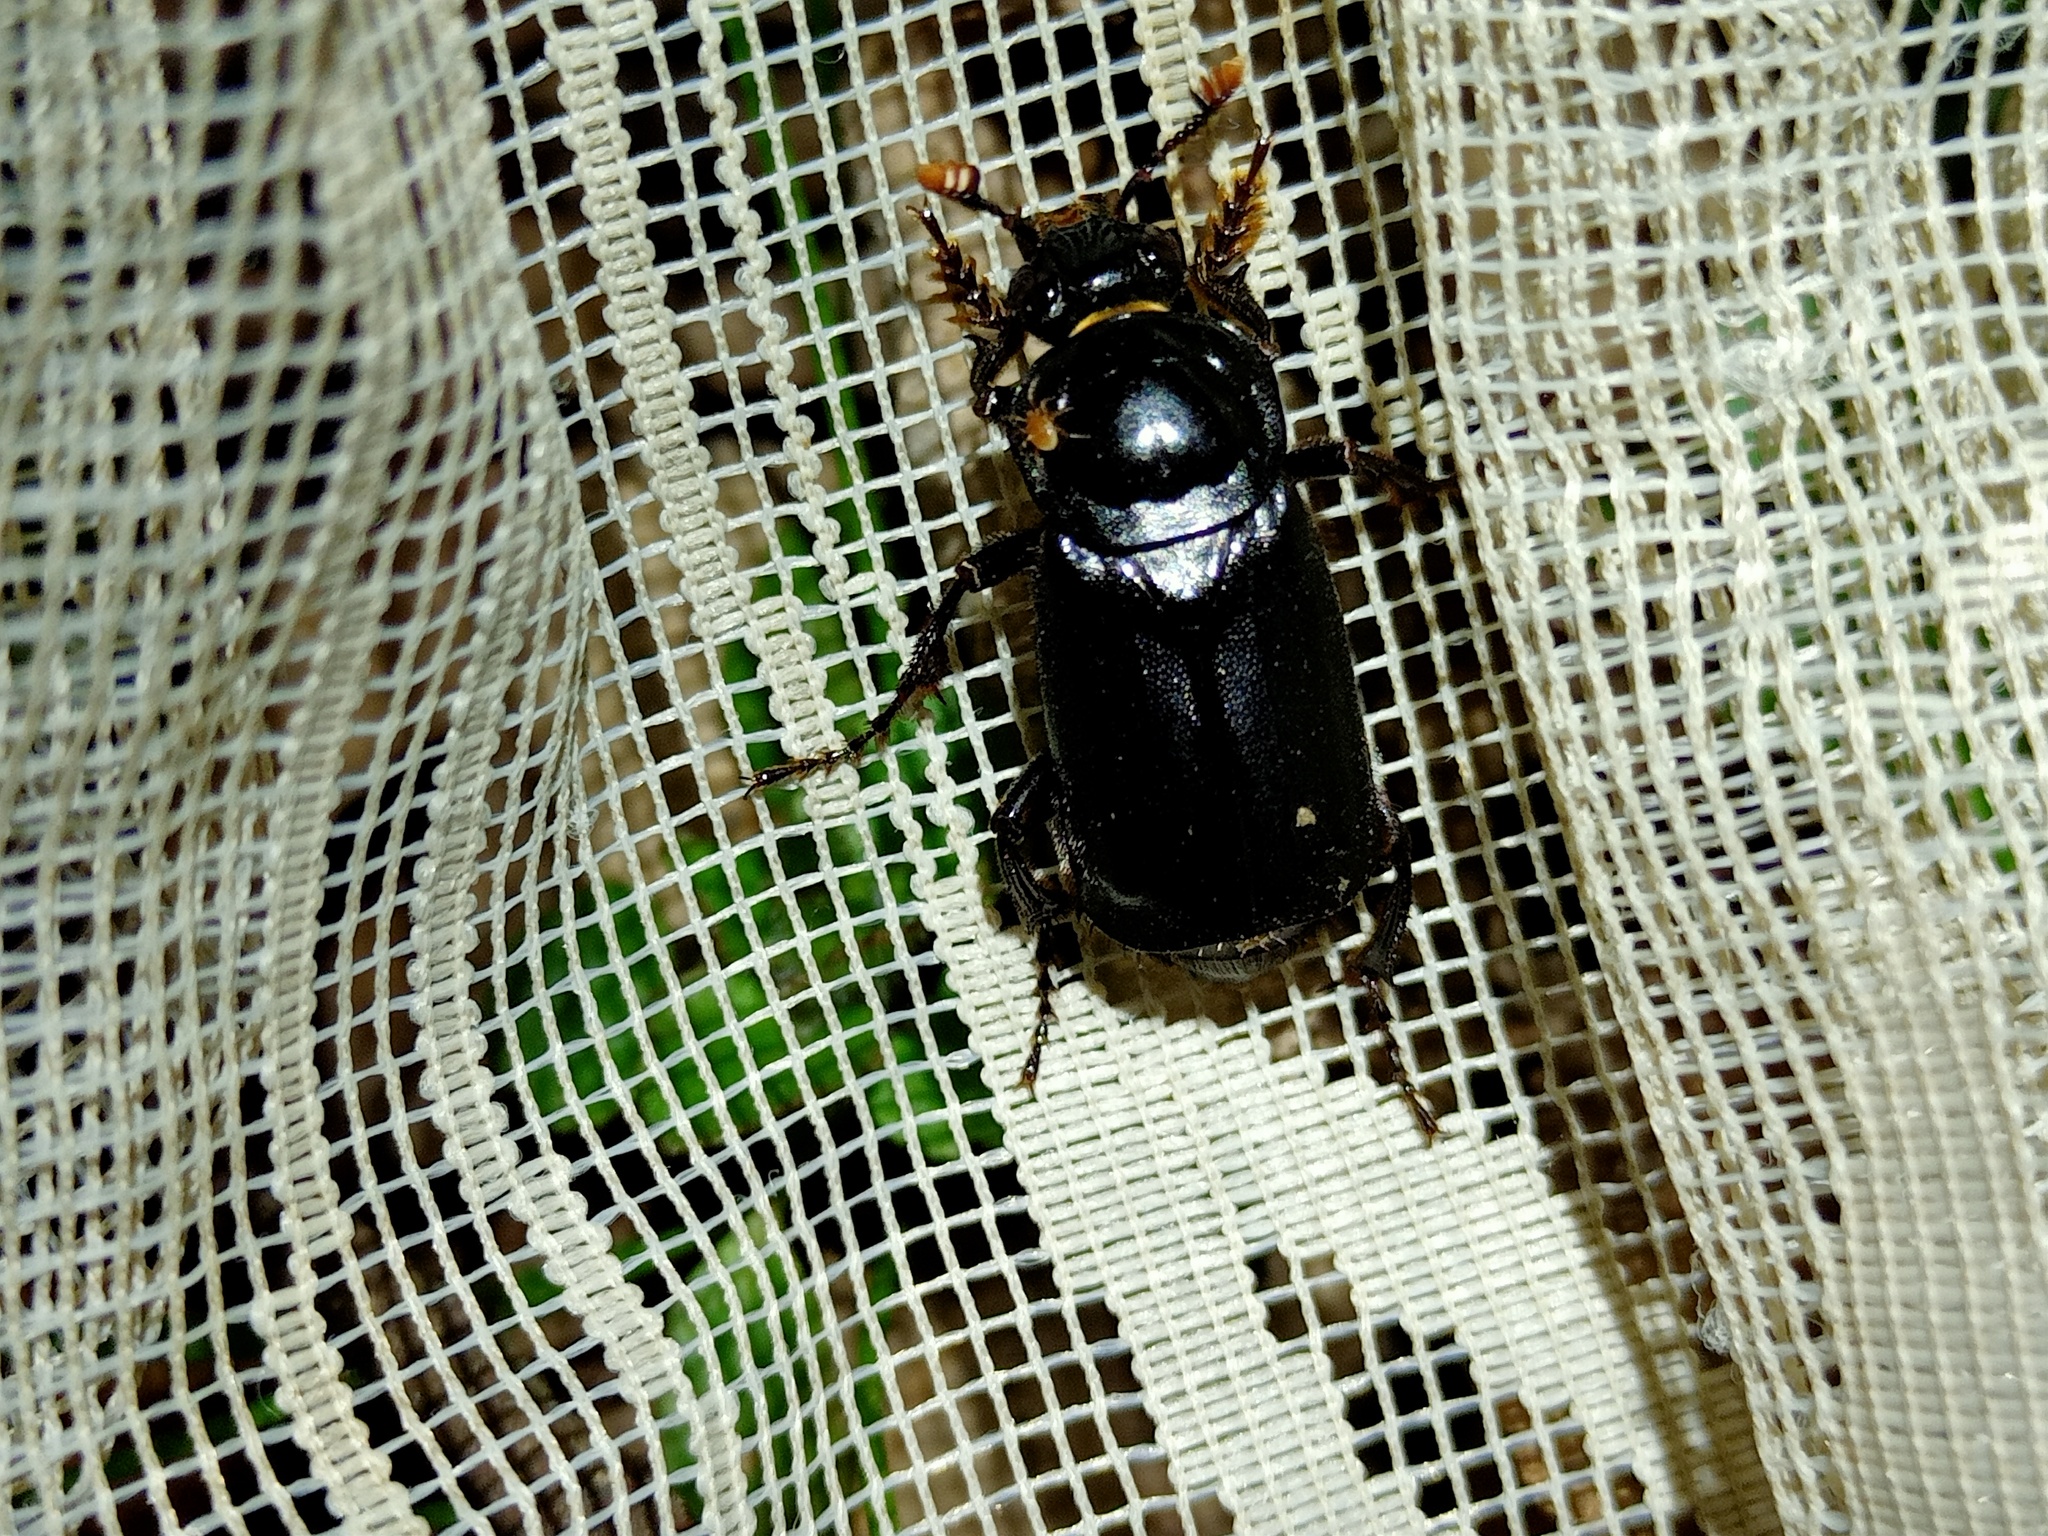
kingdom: Animalia
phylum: Arthropoda
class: Insecta
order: Coleoptera
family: Staphylinidae
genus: Nicrophorus
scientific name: Nicrophorus humator
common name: Black sexton beetle
